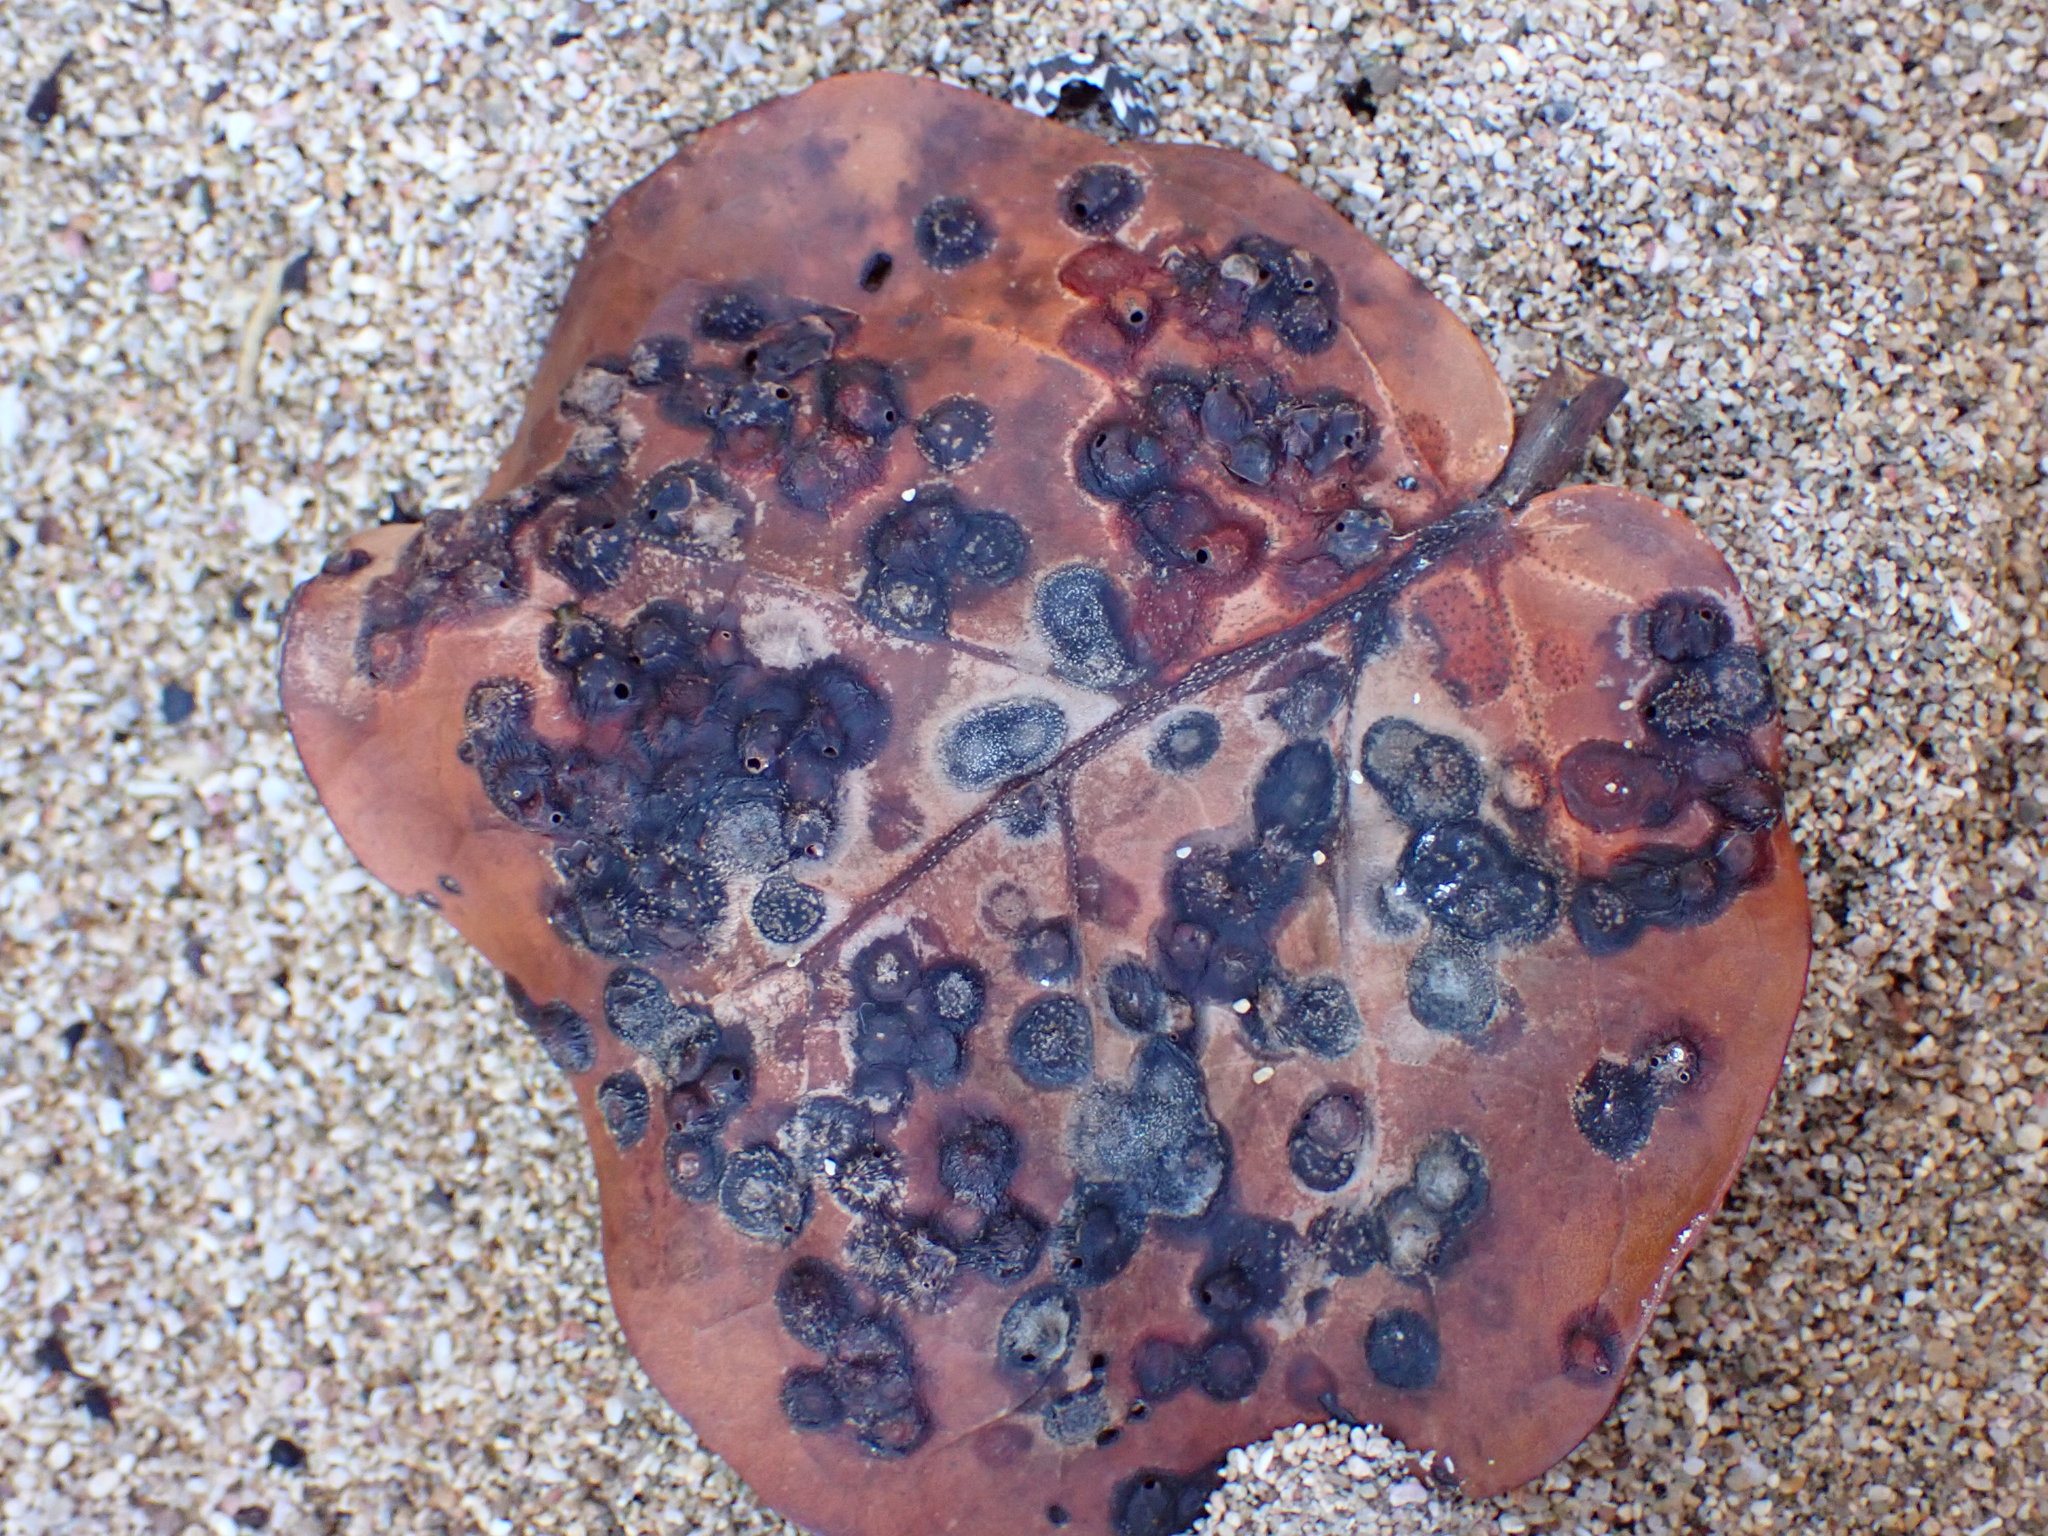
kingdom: Animalia
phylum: Arthropoda
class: Insecta
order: Diptera
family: Cecidomyiidae
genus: Ctenodactylomyia
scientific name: Ctenodactylomyia watsoni
